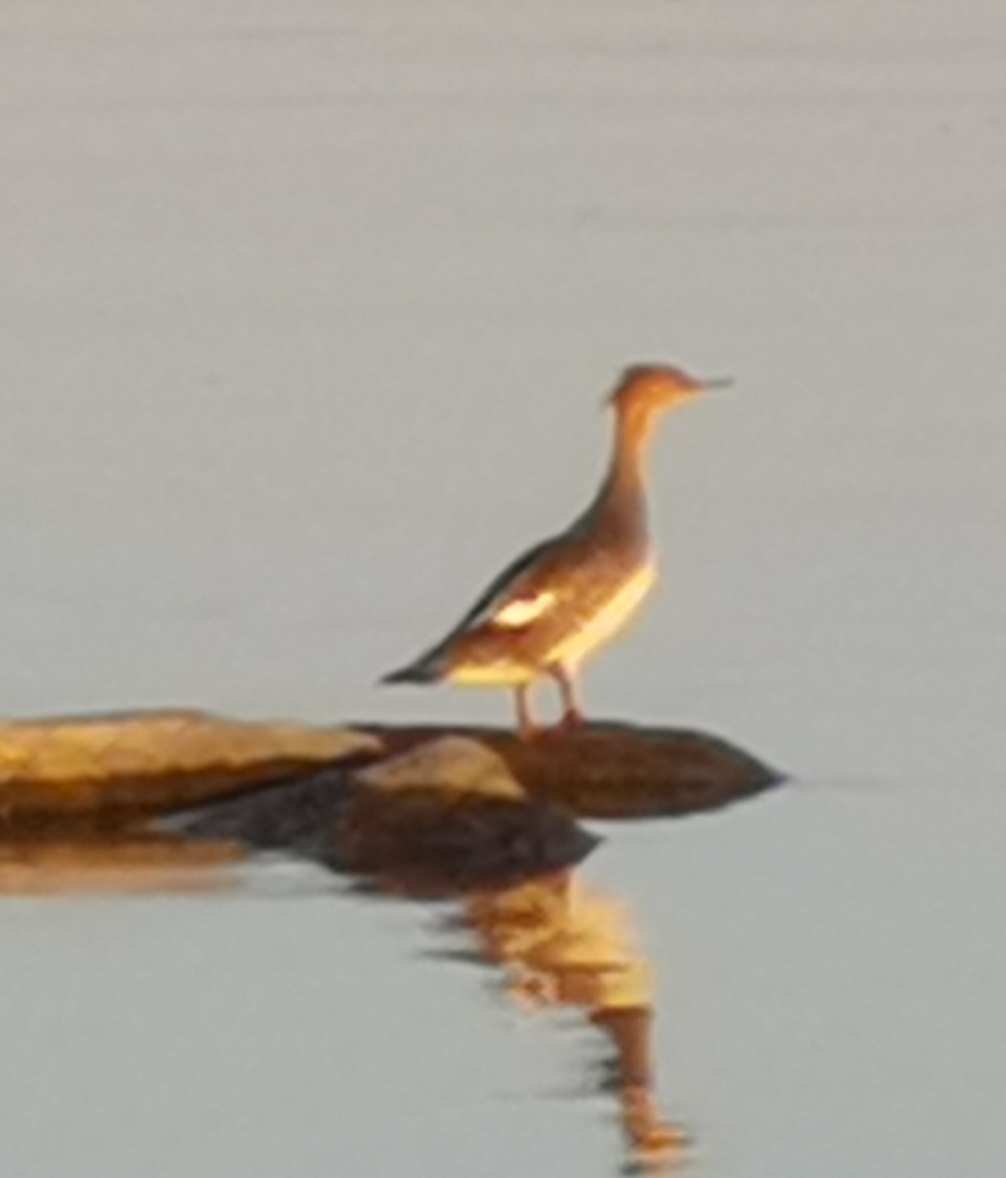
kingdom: Animalia
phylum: Chordata
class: Aves
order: Anseriformes
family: Anatidae
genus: Mergus
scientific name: Mergus serrator
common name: Red-breasted merganser
